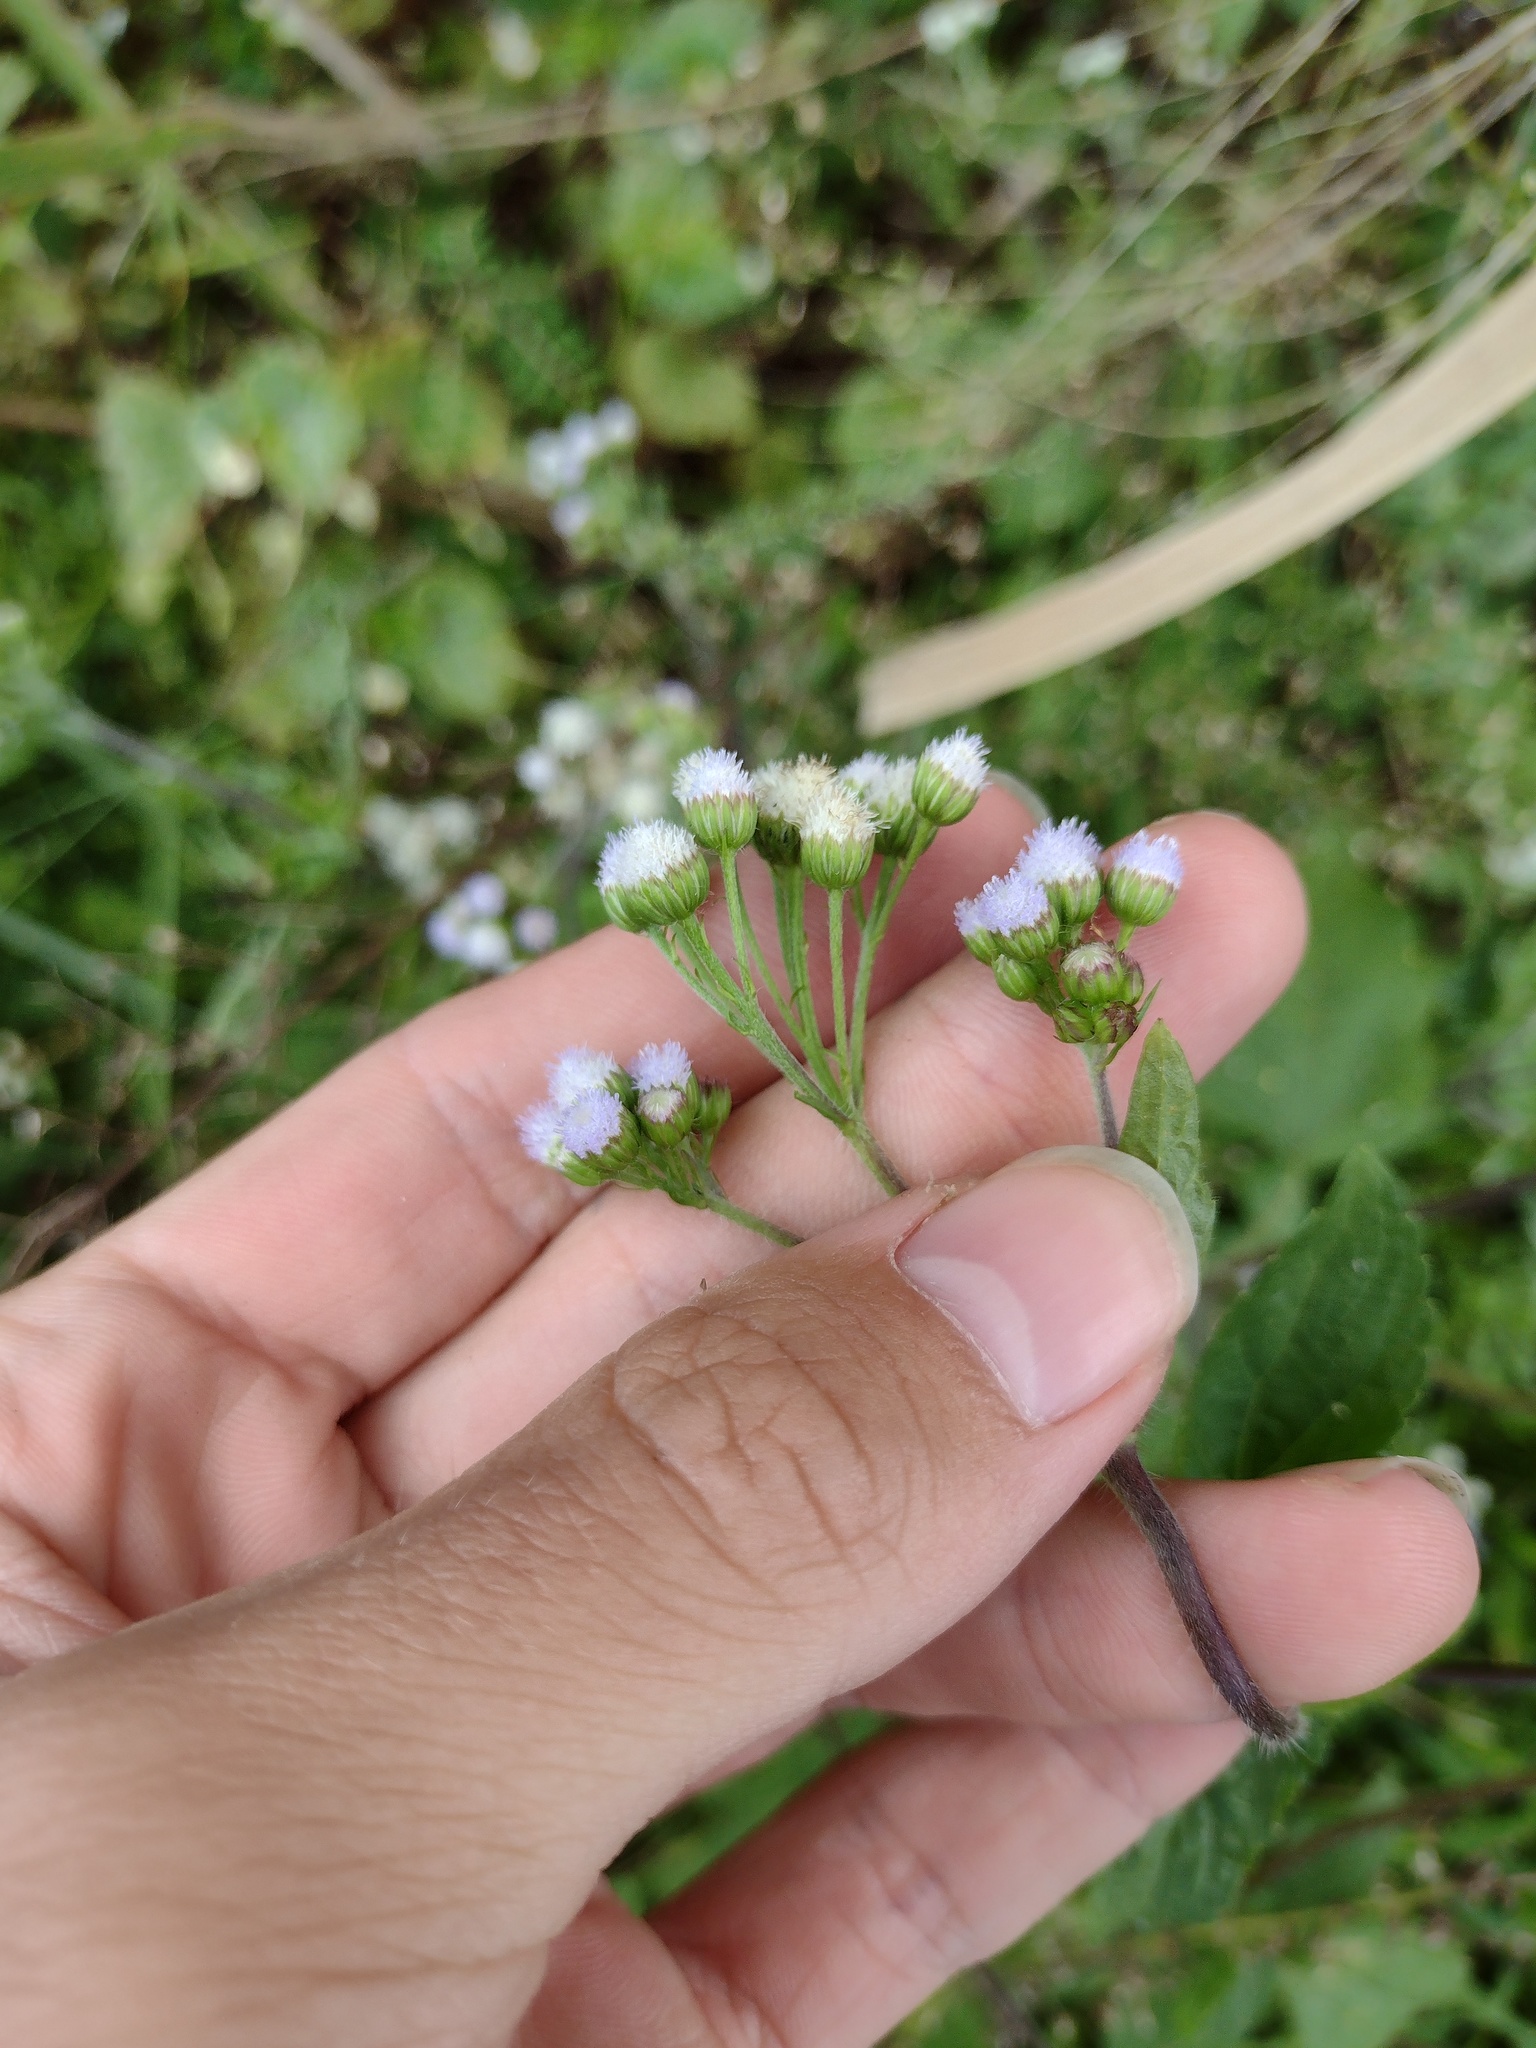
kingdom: Plantae
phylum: Tracheophyta
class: Magnoliopsida
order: Asterales
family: Asteraceae
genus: Ageratum
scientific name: Ageratum conyzoides
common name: Tropical whiteweed
